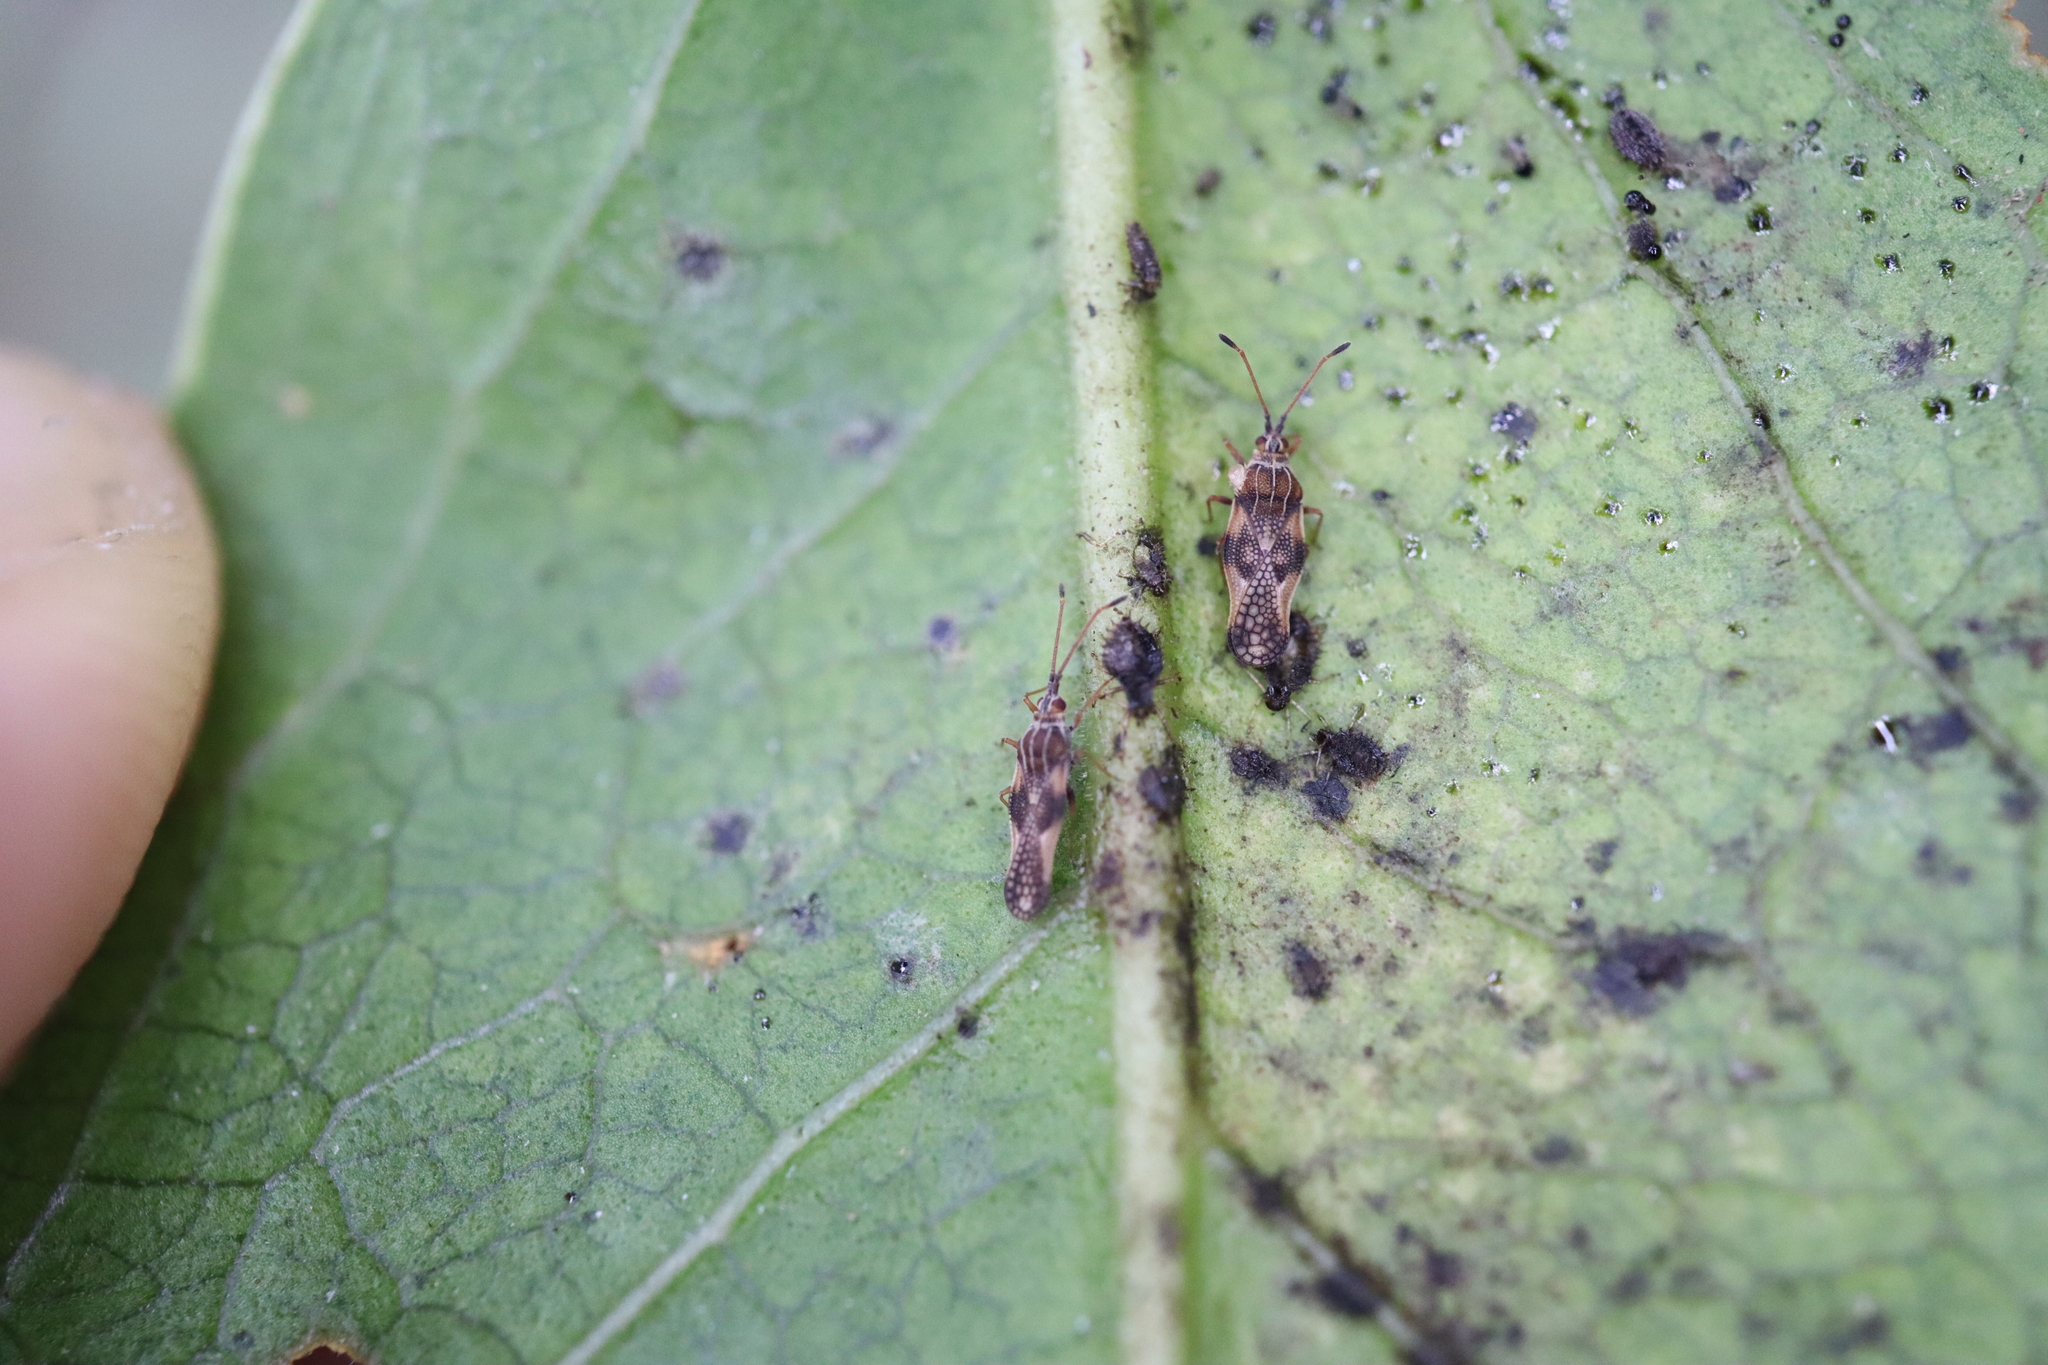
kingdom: Animalia
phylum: Arthropoda
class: Insecta
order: Hemiptera
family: Tingidae
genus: Froggattia
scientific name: Froggattia olivinia
